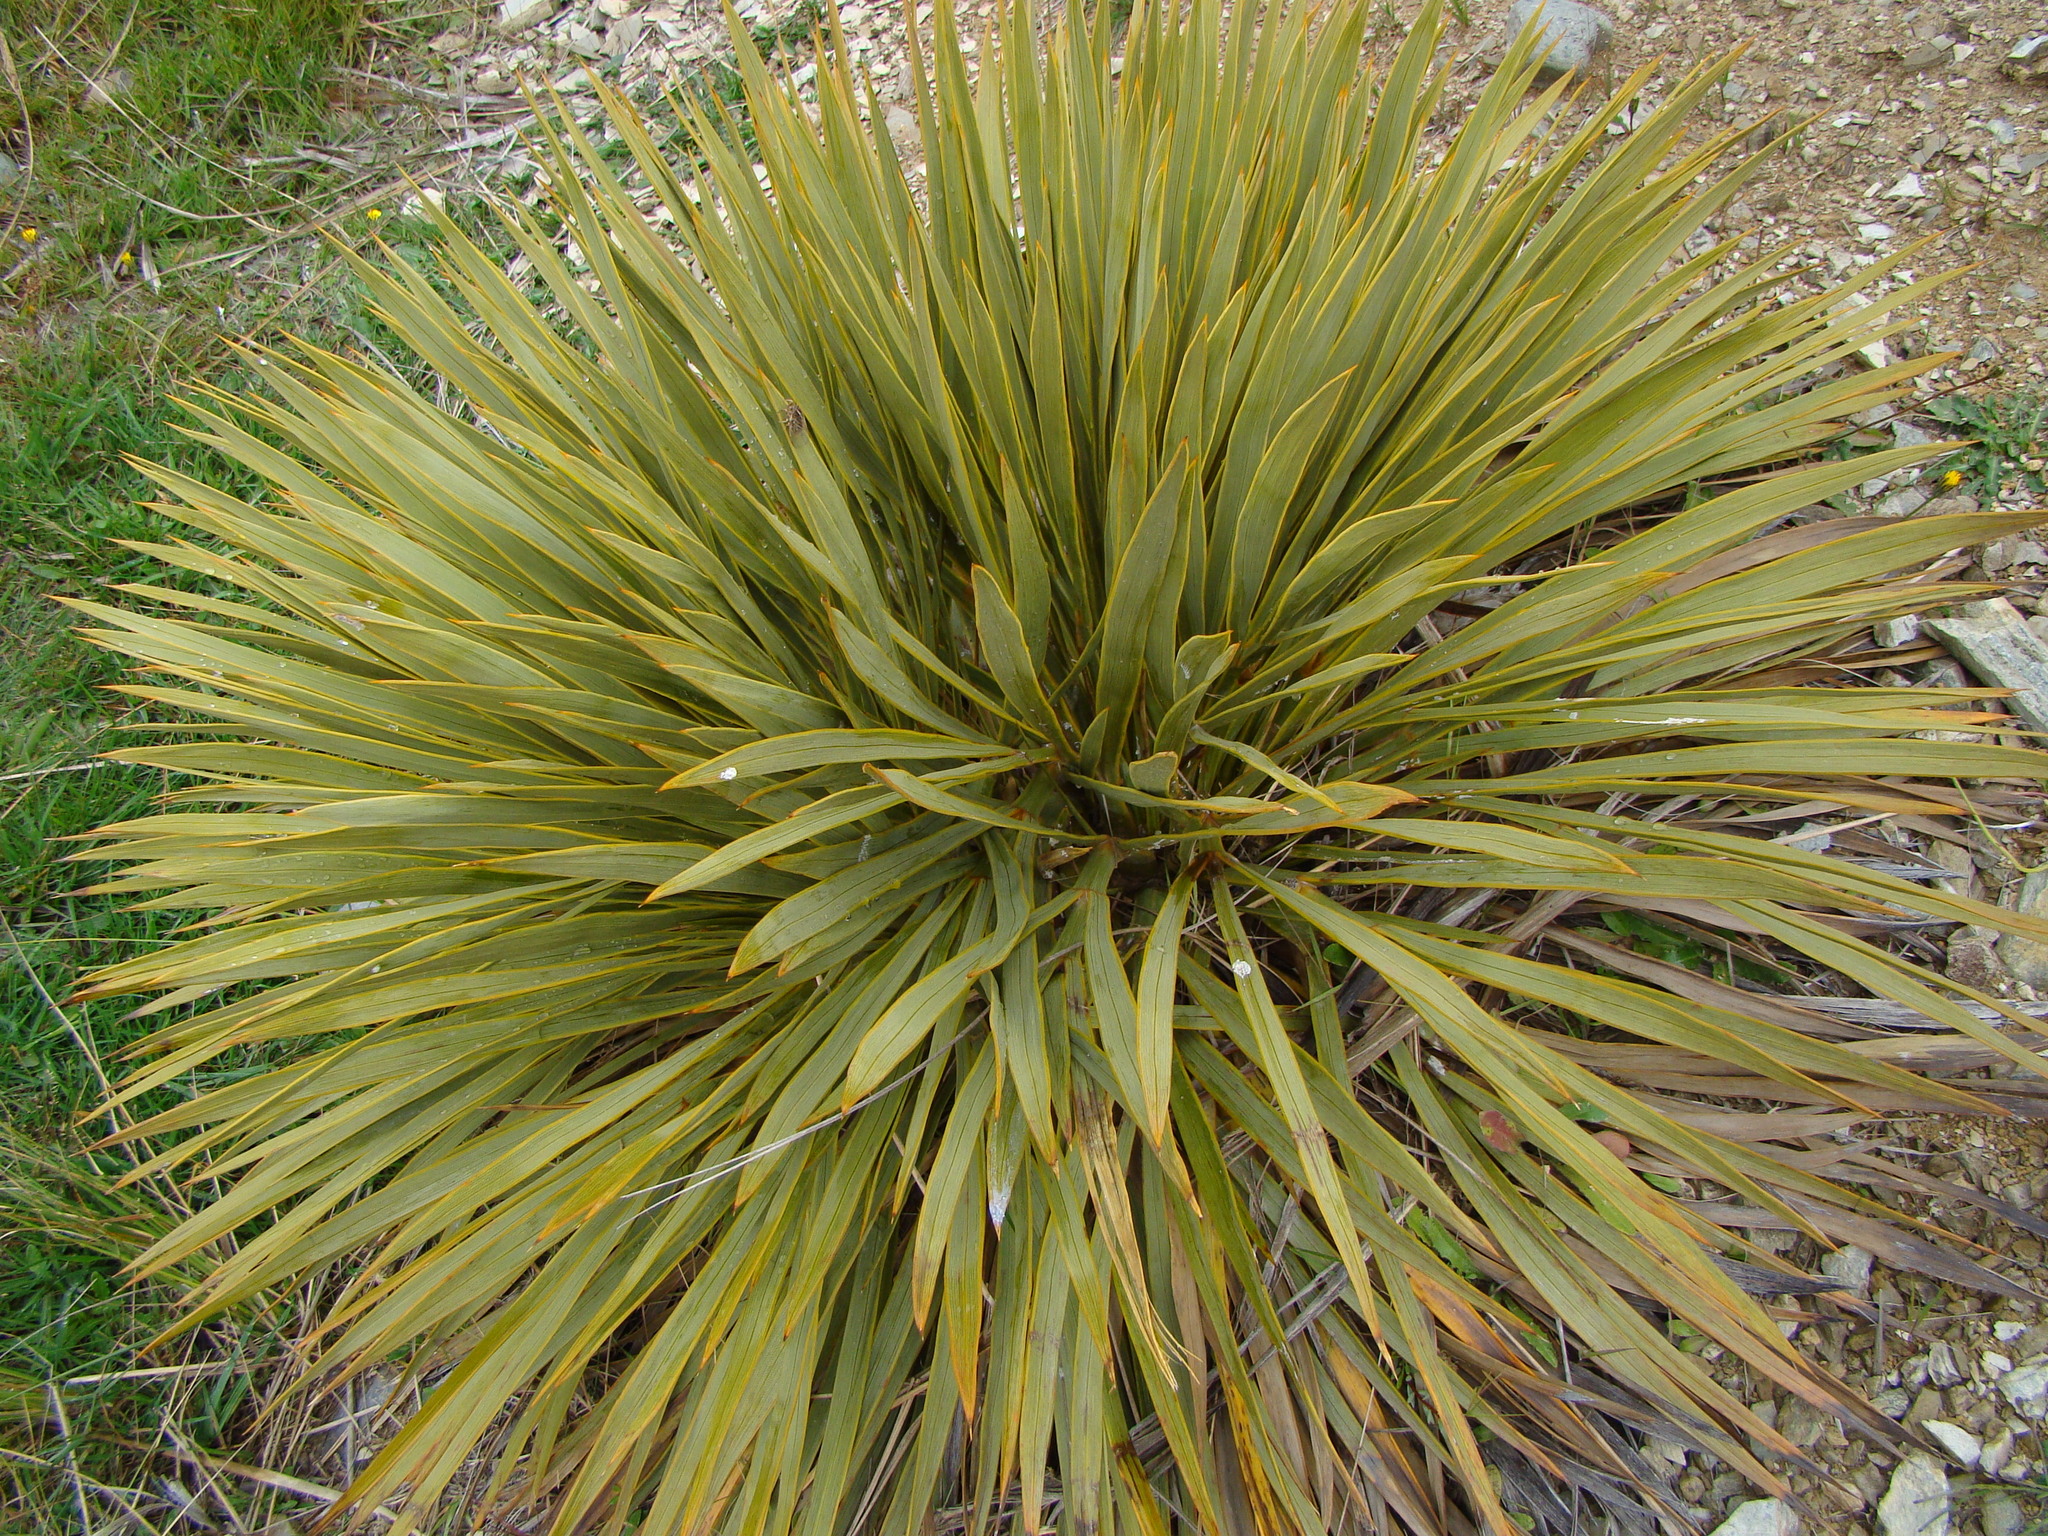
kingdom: Plantae
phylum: Tracheophyta
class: Magnoliopsida
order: Apiales
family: Apiaceae
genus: Aciphylla
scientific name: Aciphylla aurea
